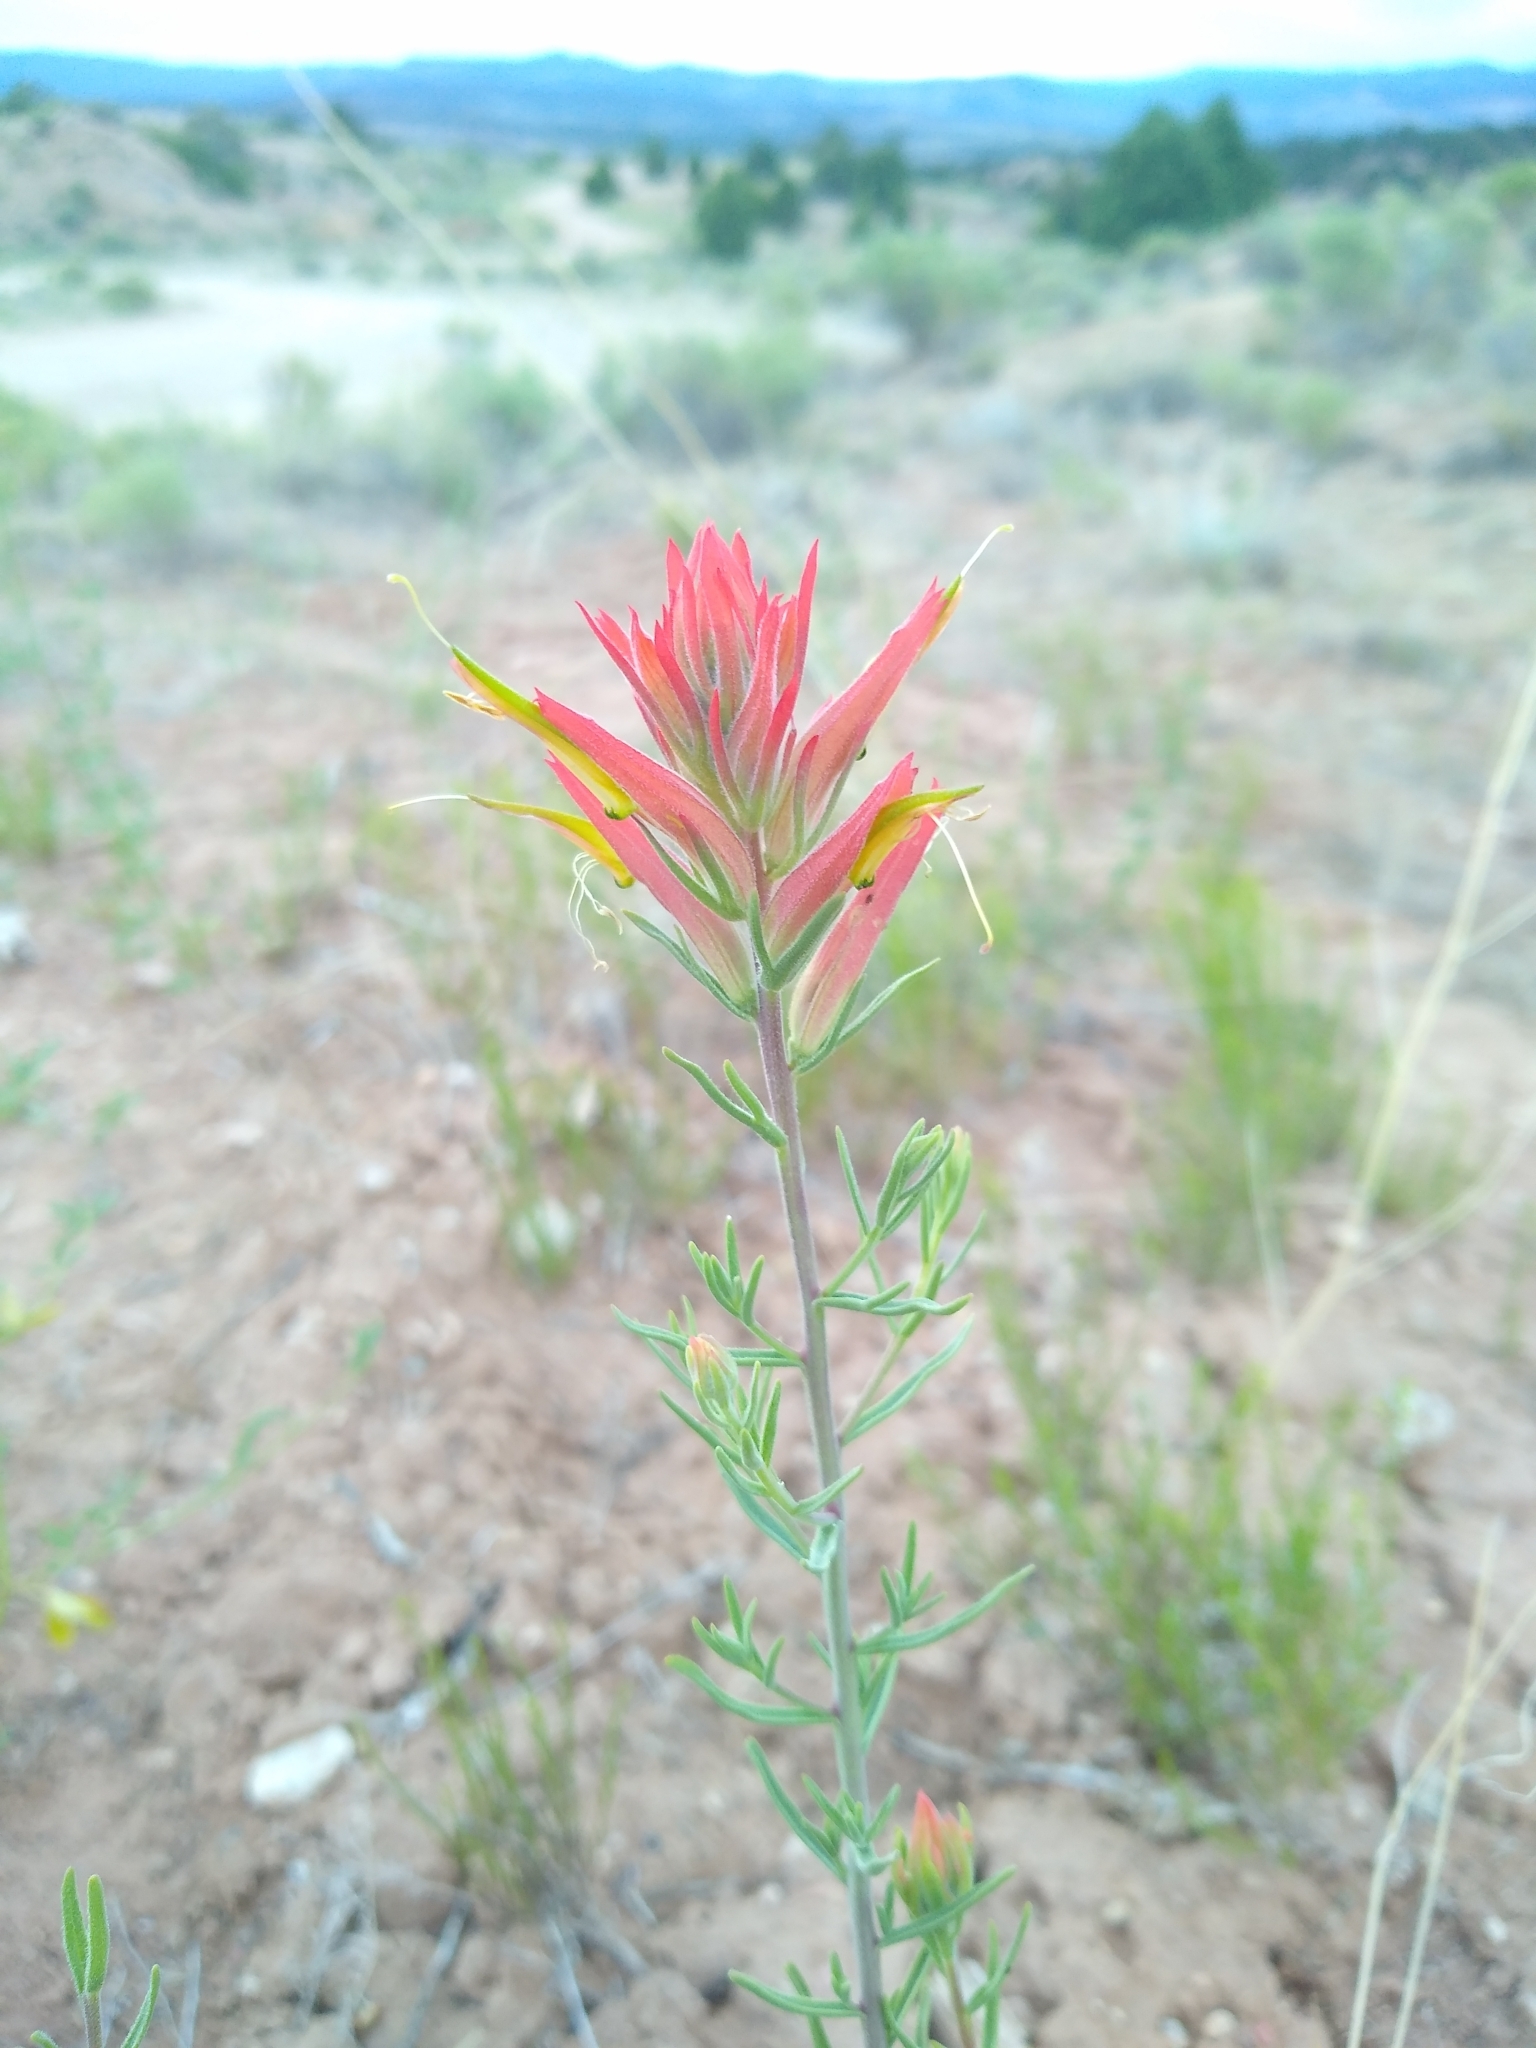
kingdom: Plantae
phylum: Tracheophyta
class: Magnoliopsida
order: Lamiales
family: Orobanchaceae
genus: Castilleja
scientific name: Castilleja linariifolia
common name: Wyoming paintbrush
